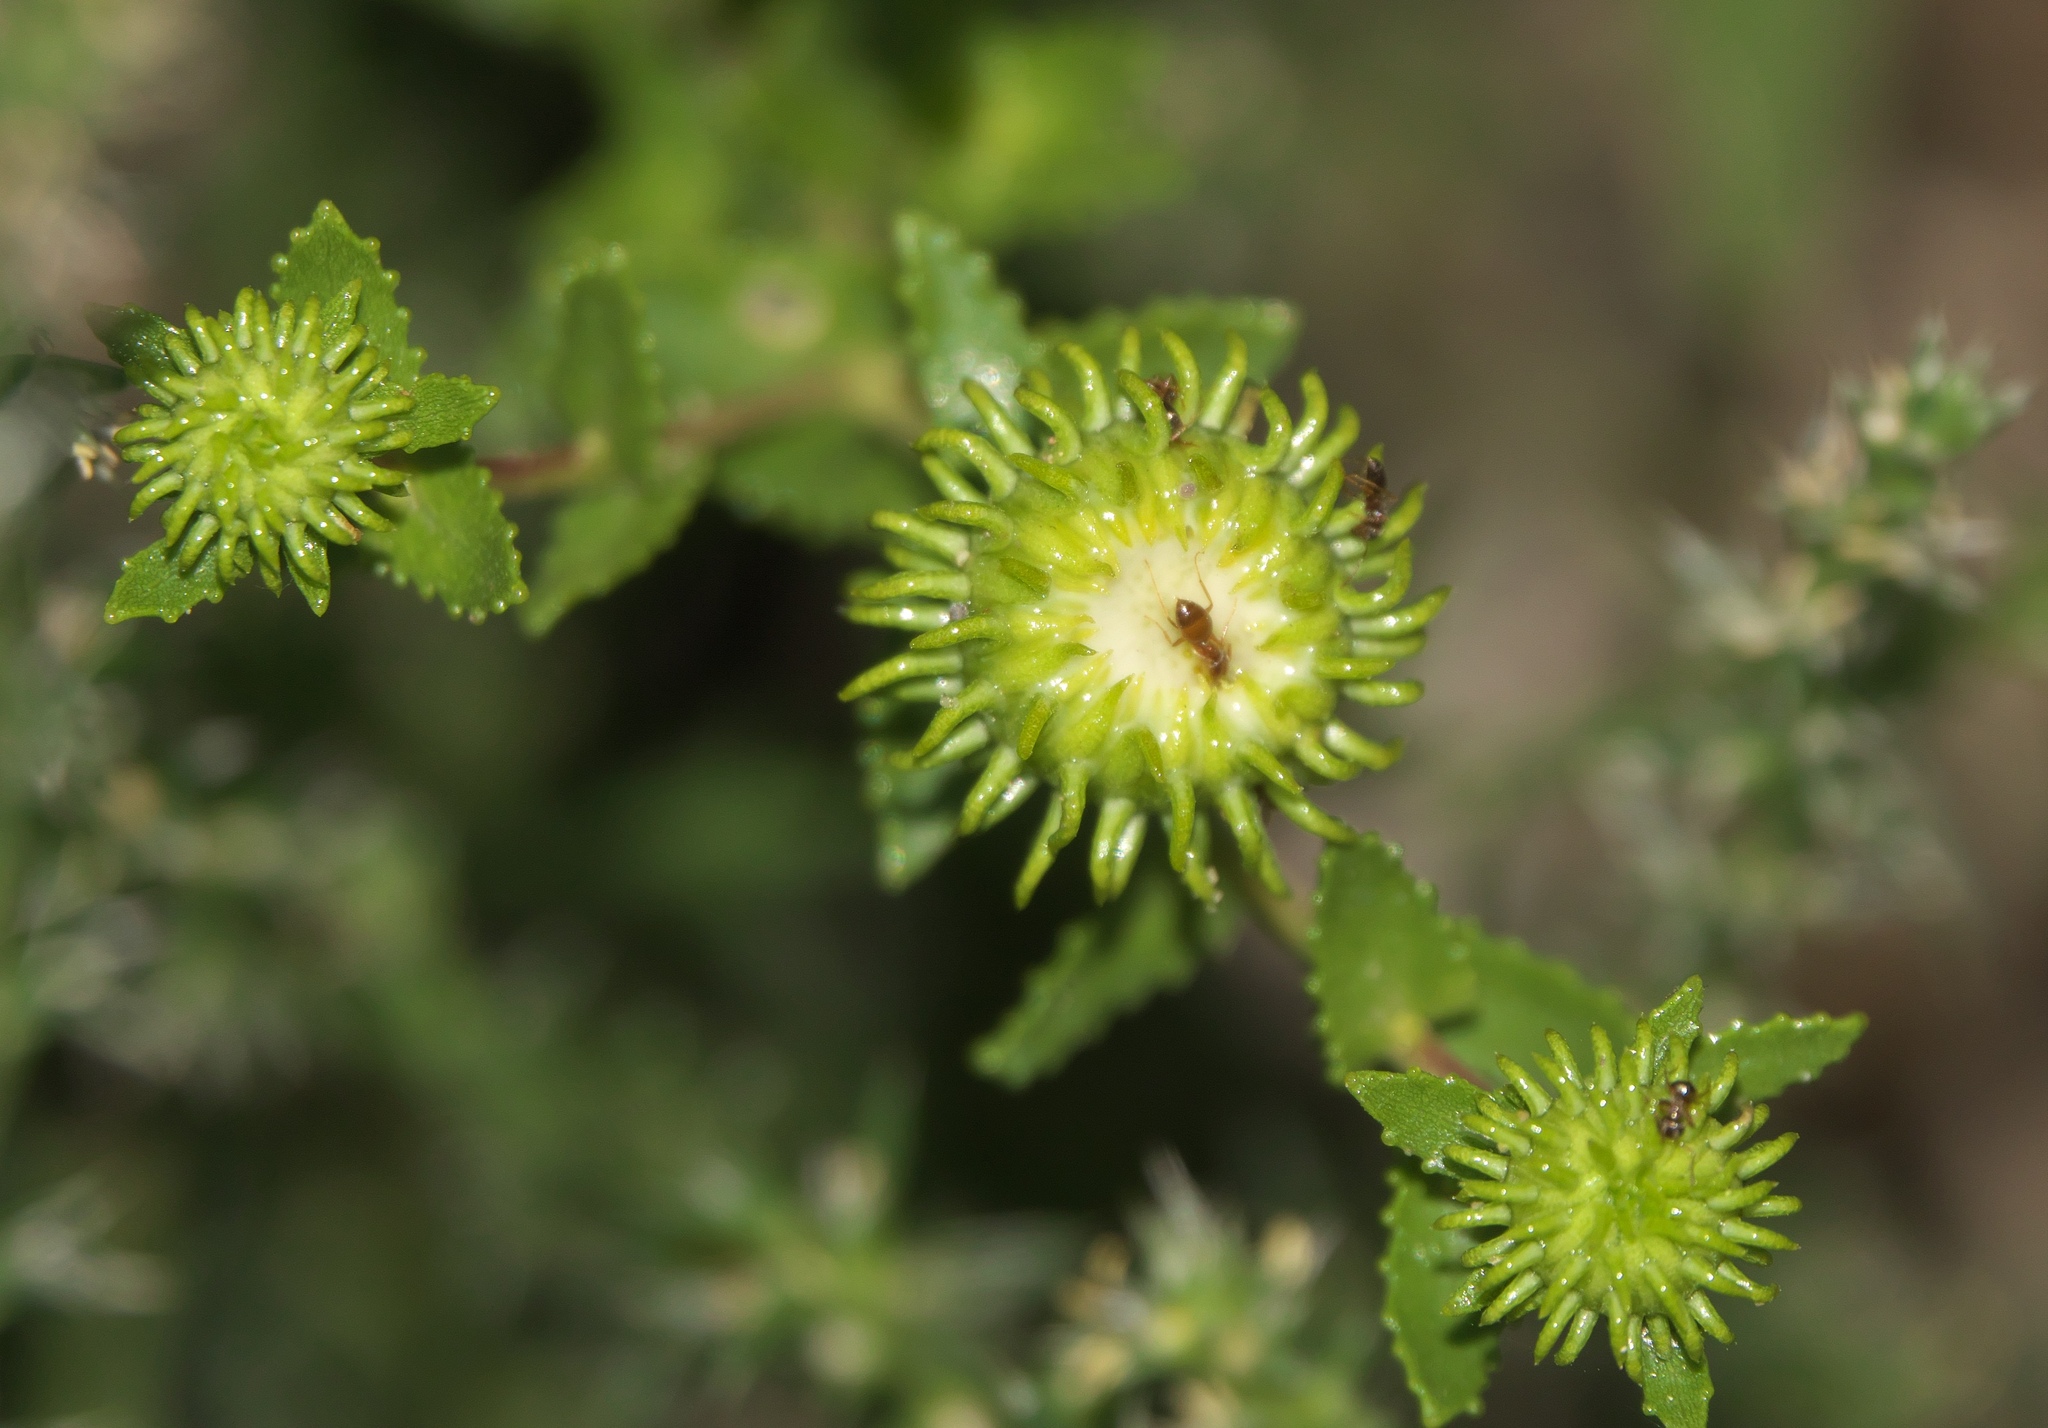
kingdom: Plantae
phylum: Tracheophyta
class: Magnoliopsida
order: Asterales
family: Asteraceae
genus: Grindelia
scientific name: Grindelia squarrosa
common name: Curly-cup gumweed
